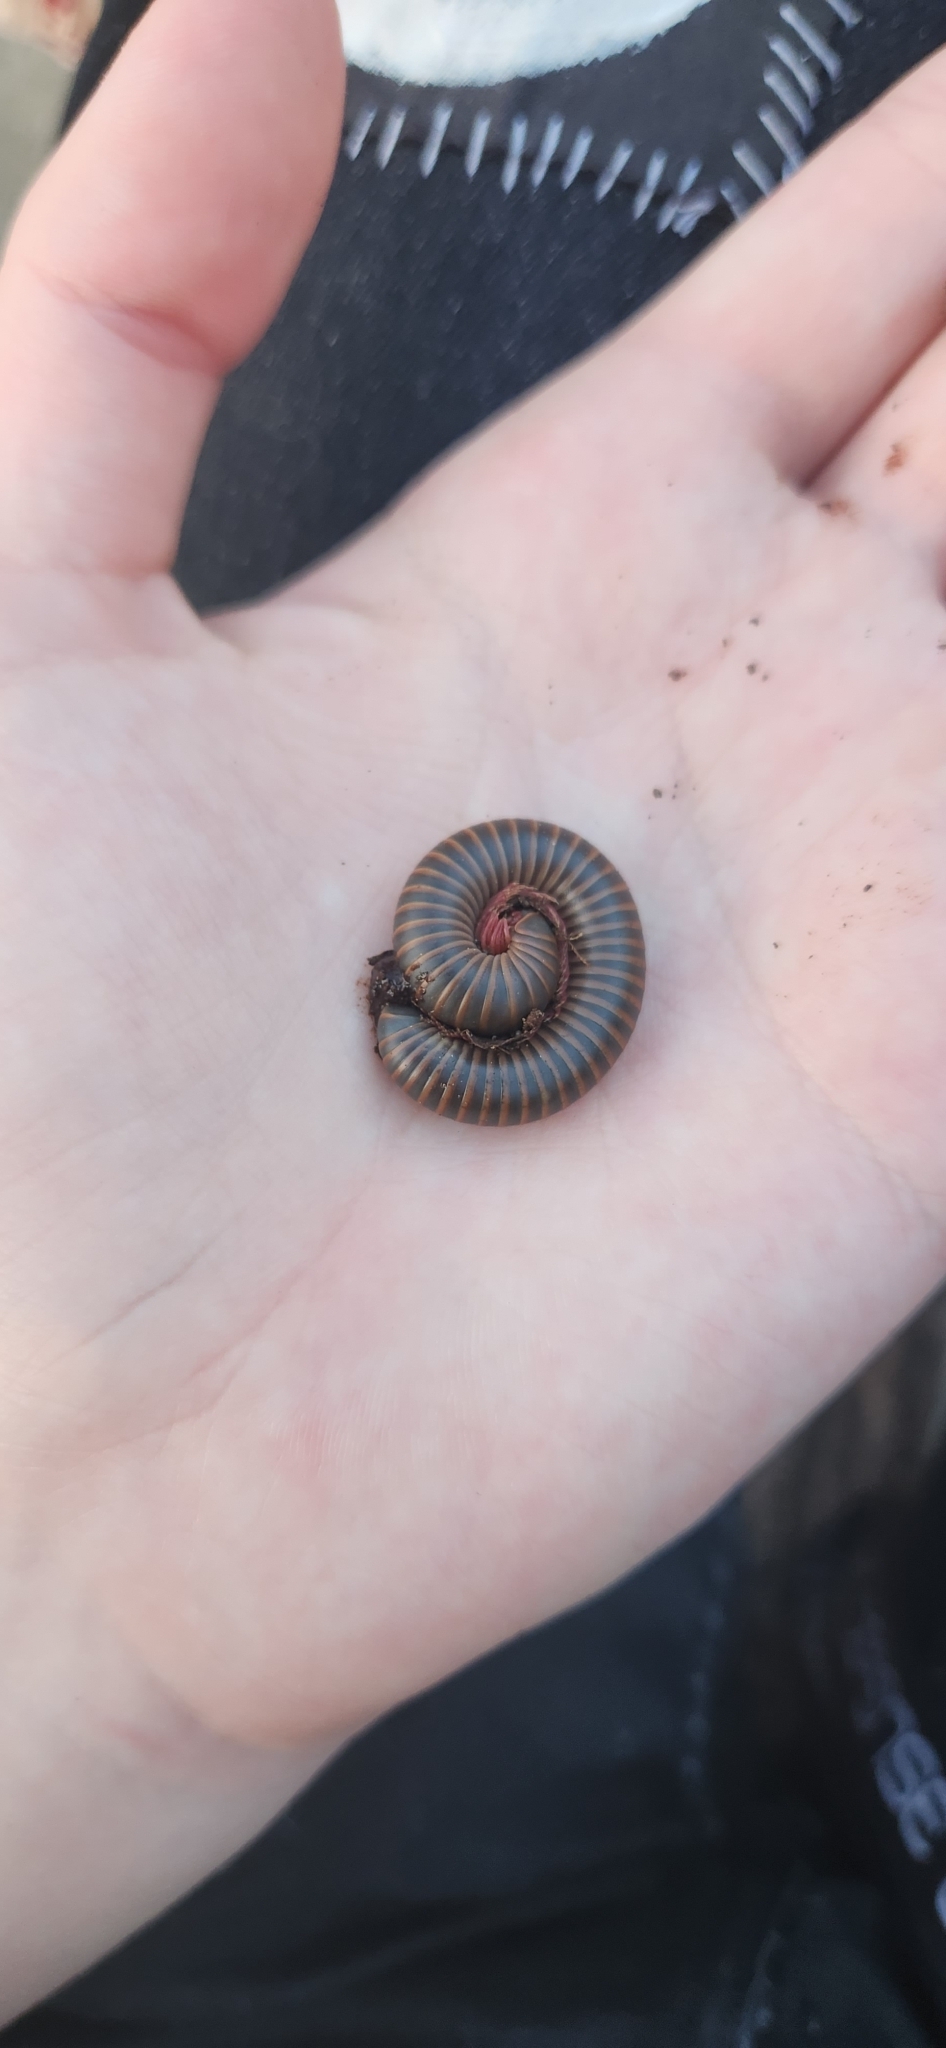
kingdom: Animalia
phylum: Arthropoda
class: Diplopoda
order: Spirobolida
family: Spirobolidae
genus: Narceus
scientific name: Narceus americanus
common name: American giant millipede
